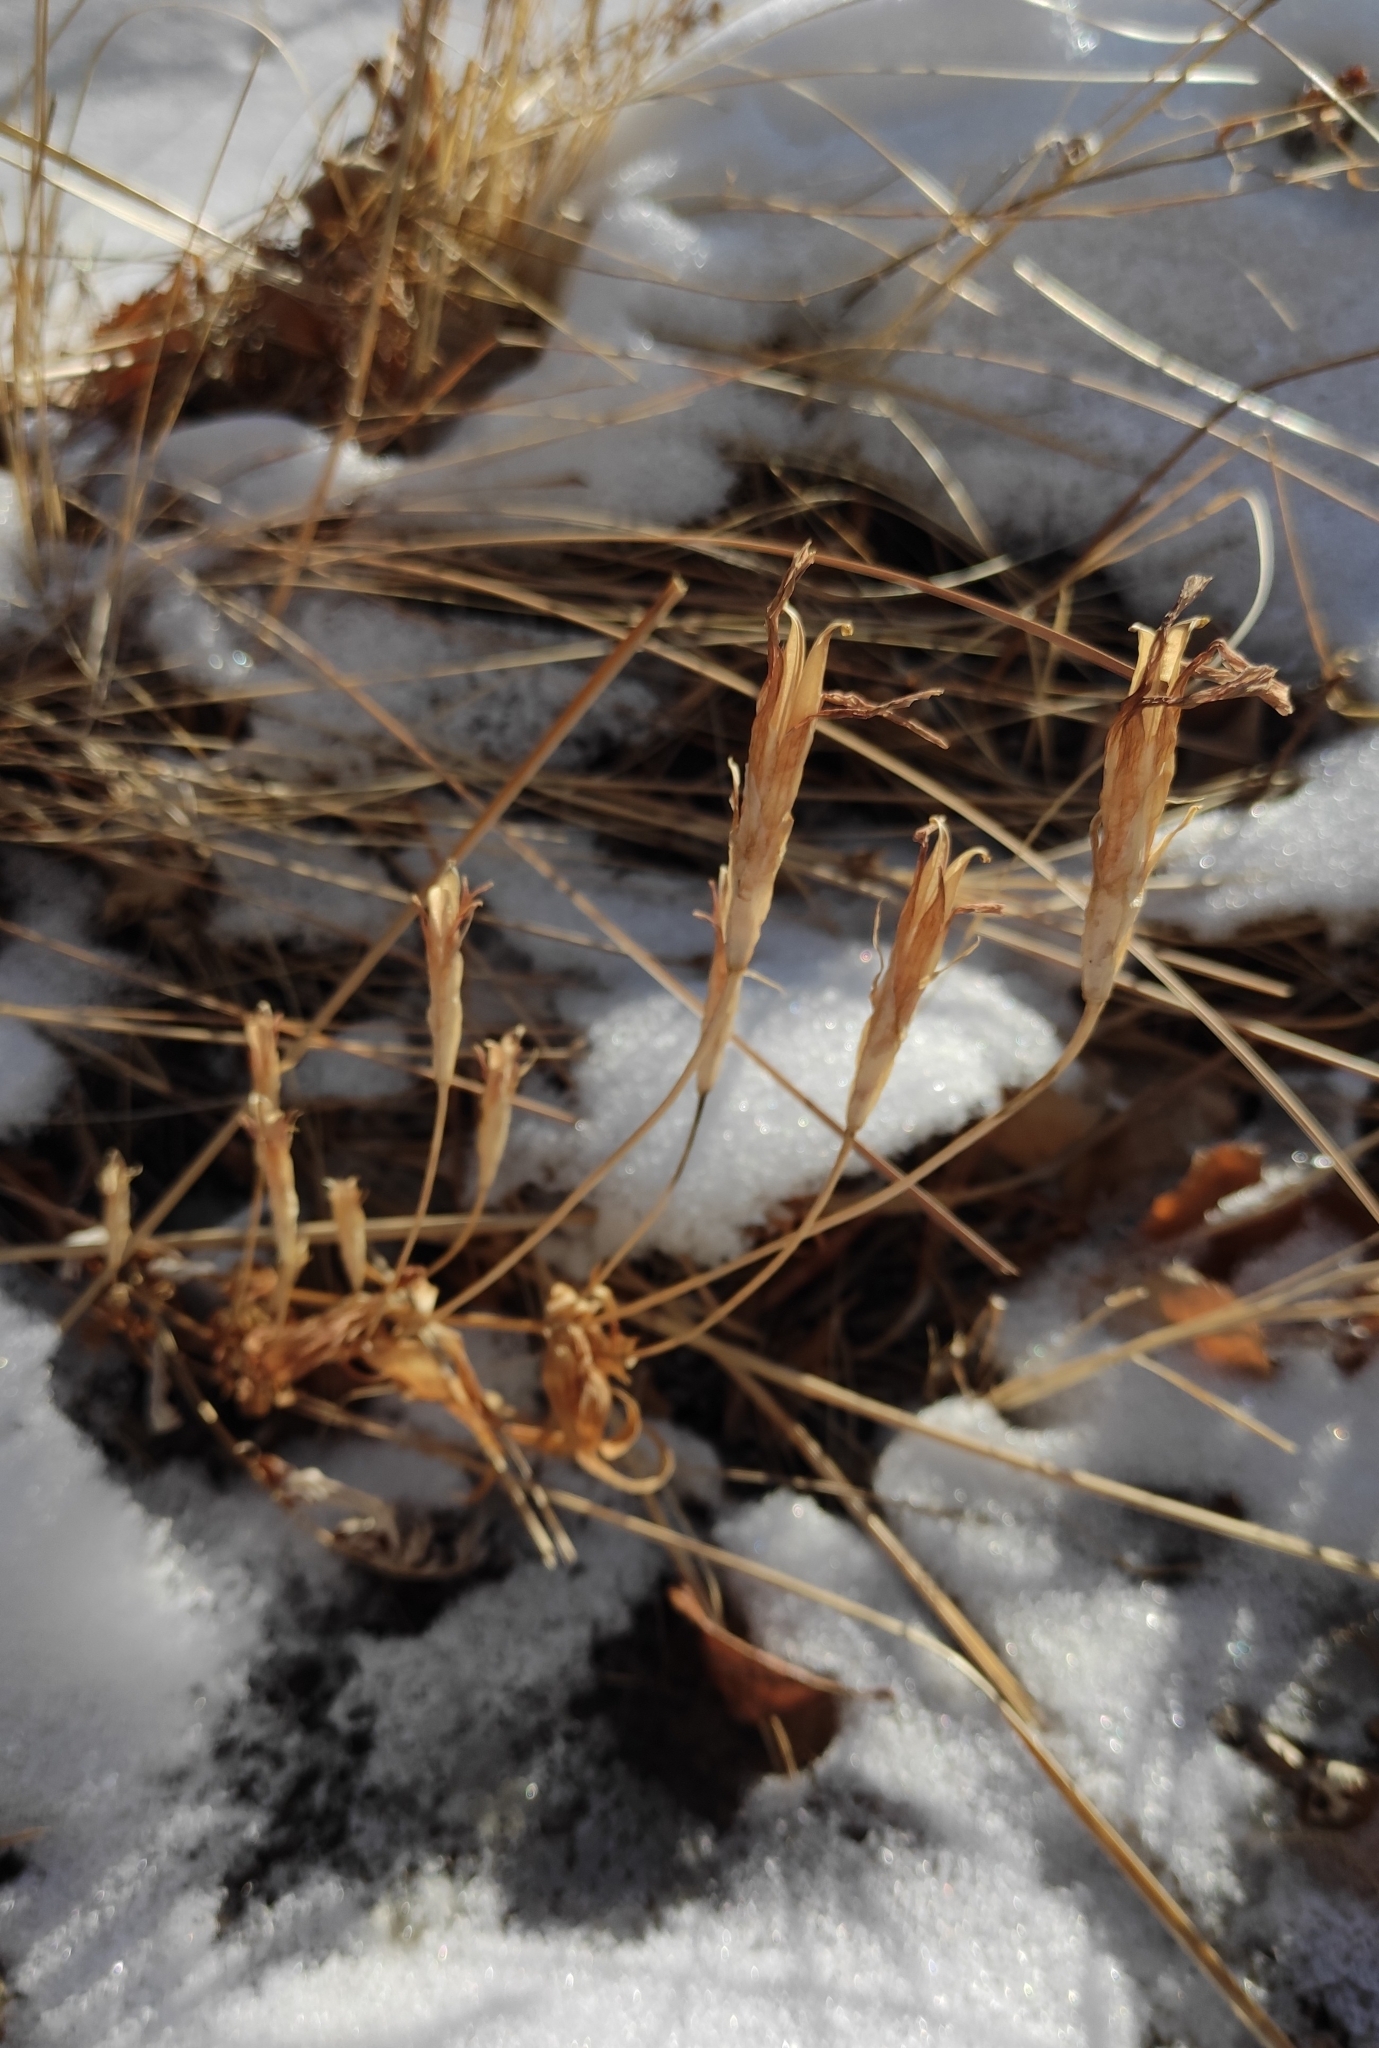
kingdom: Plantae
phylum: Tracheophyta
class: Magnoliopsida
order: Gentianales
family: Gentianaceae
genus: Gentianopsis
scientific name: Gentianopsis barbata
